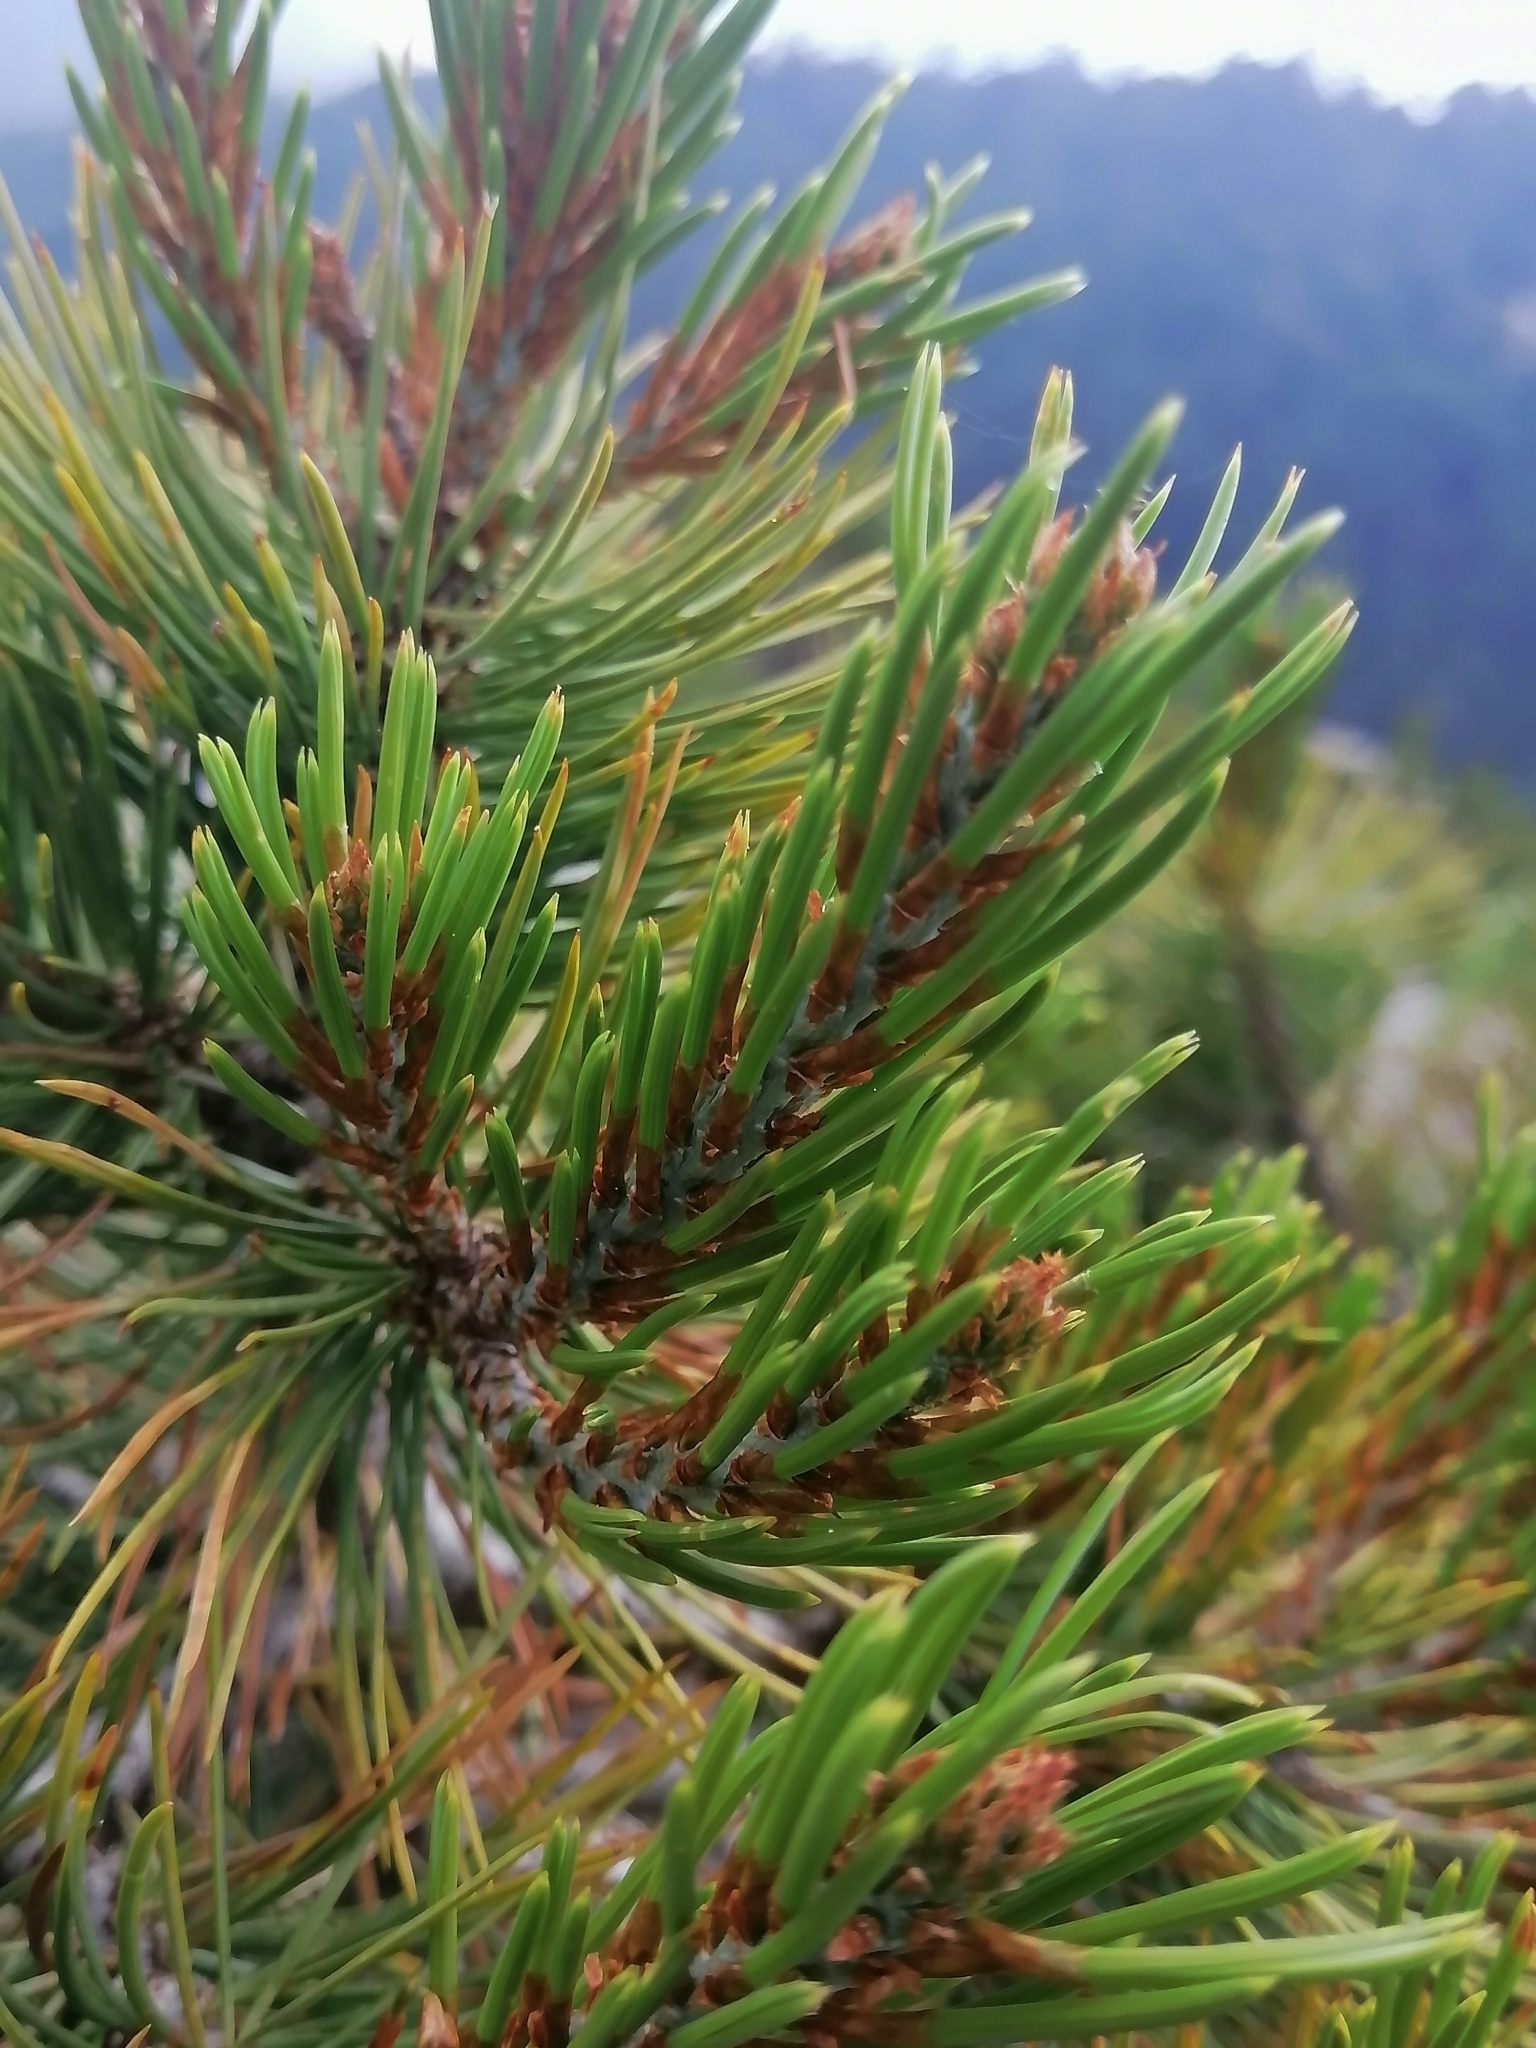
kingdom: Plantae
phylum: Tracheophyta
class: Pinopsida
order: Pinales
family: Pinaceae
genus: Pinus
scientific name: Pinus cembroides
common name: Mexican nut pine
